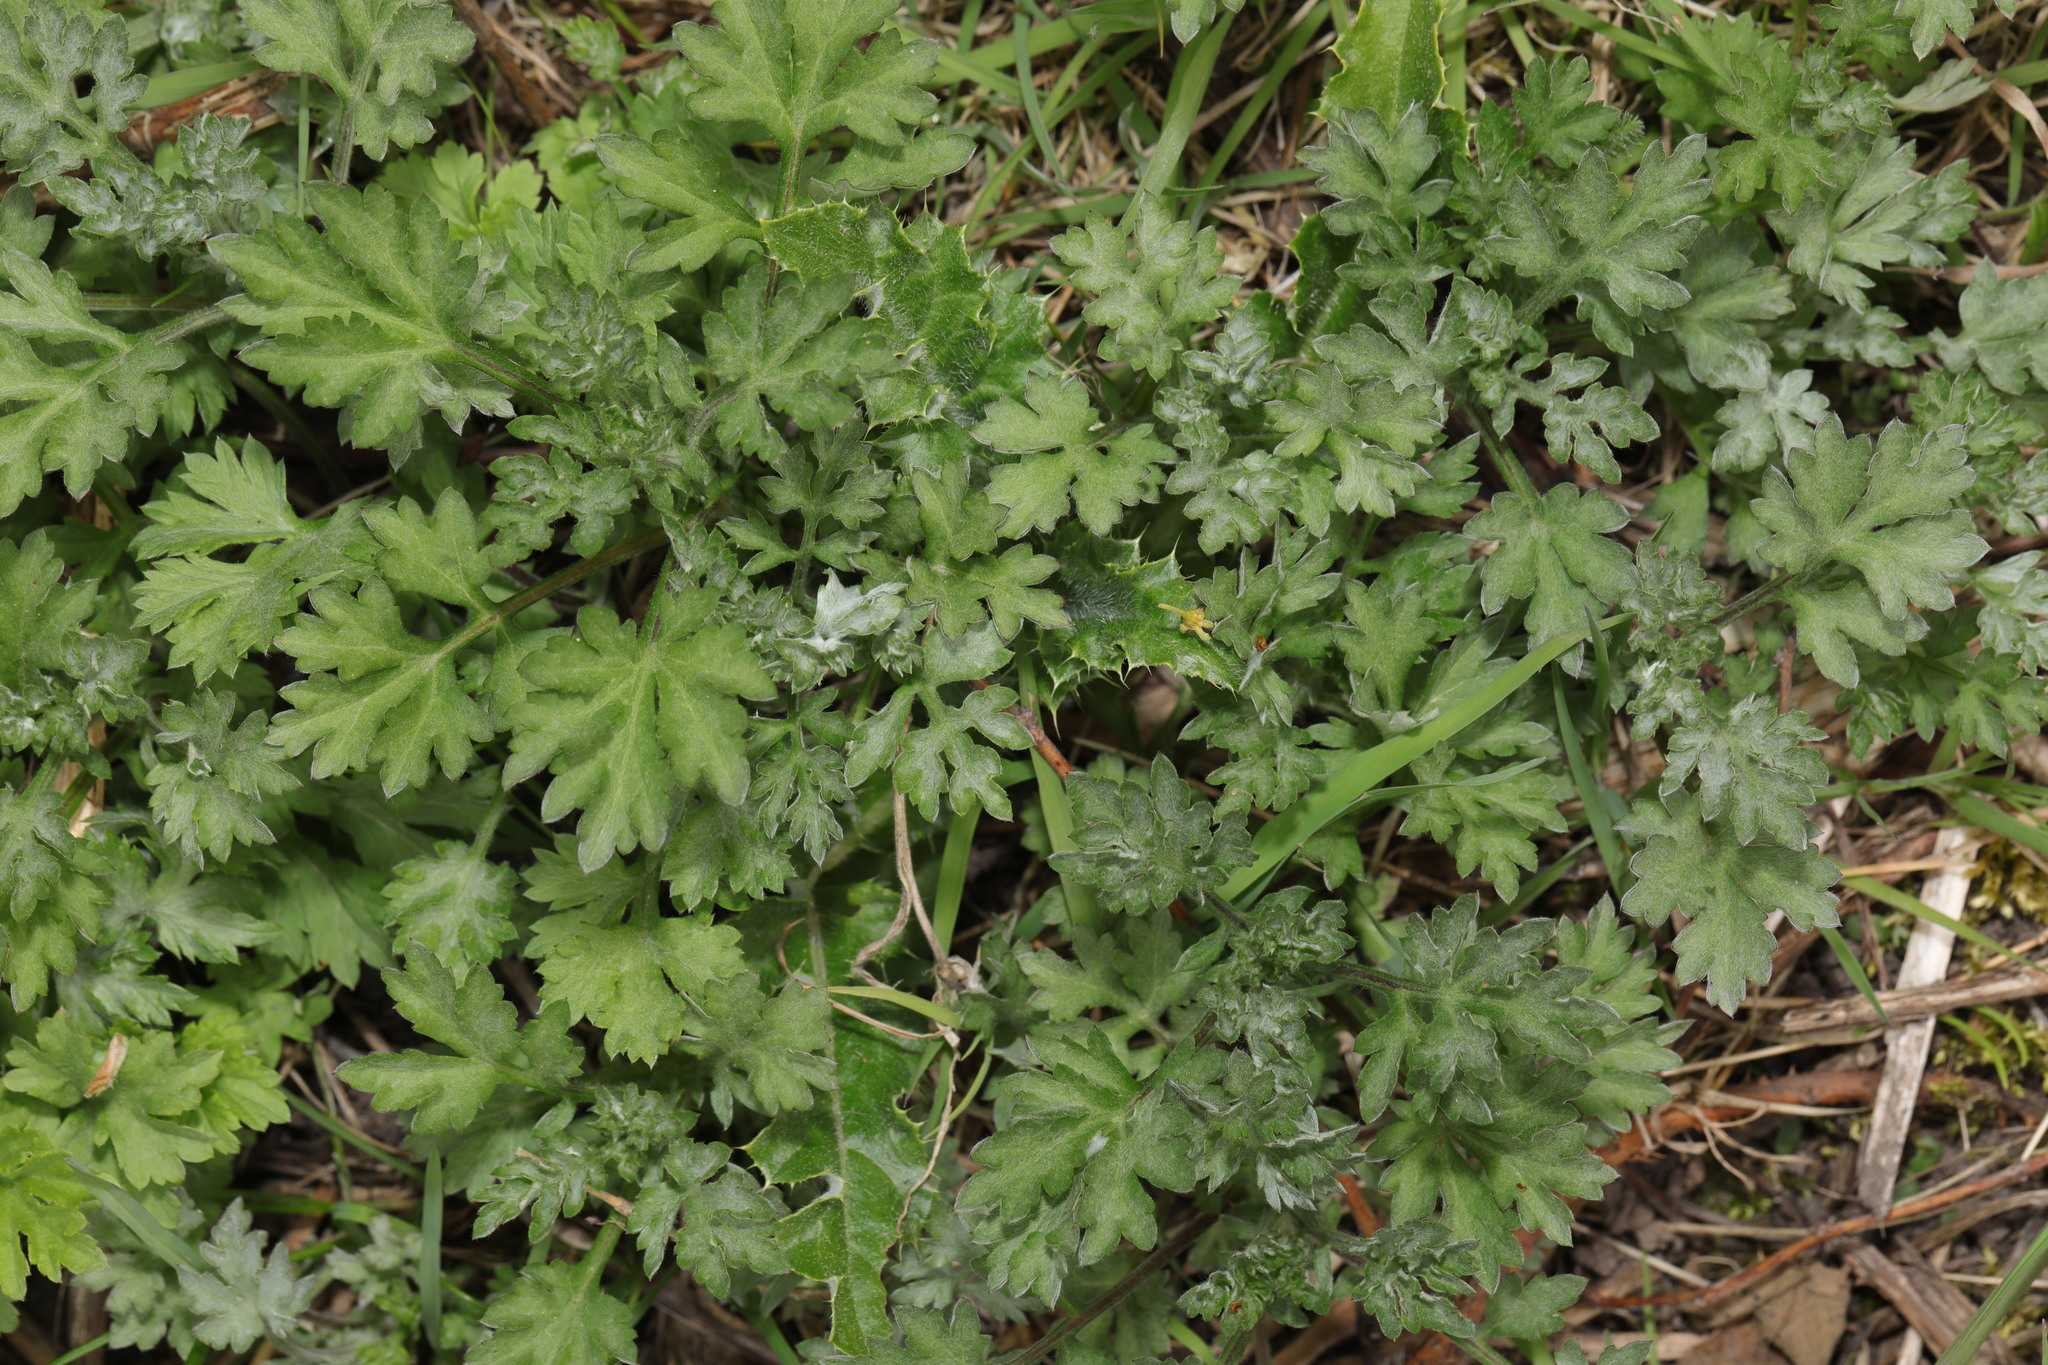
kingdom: Plantae
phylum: Tracheophyta
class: Magnoliopsida
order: Asterales
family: Asteraceae
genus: Artemisia
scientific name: Artemisia vulgaris
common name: Mugwort
